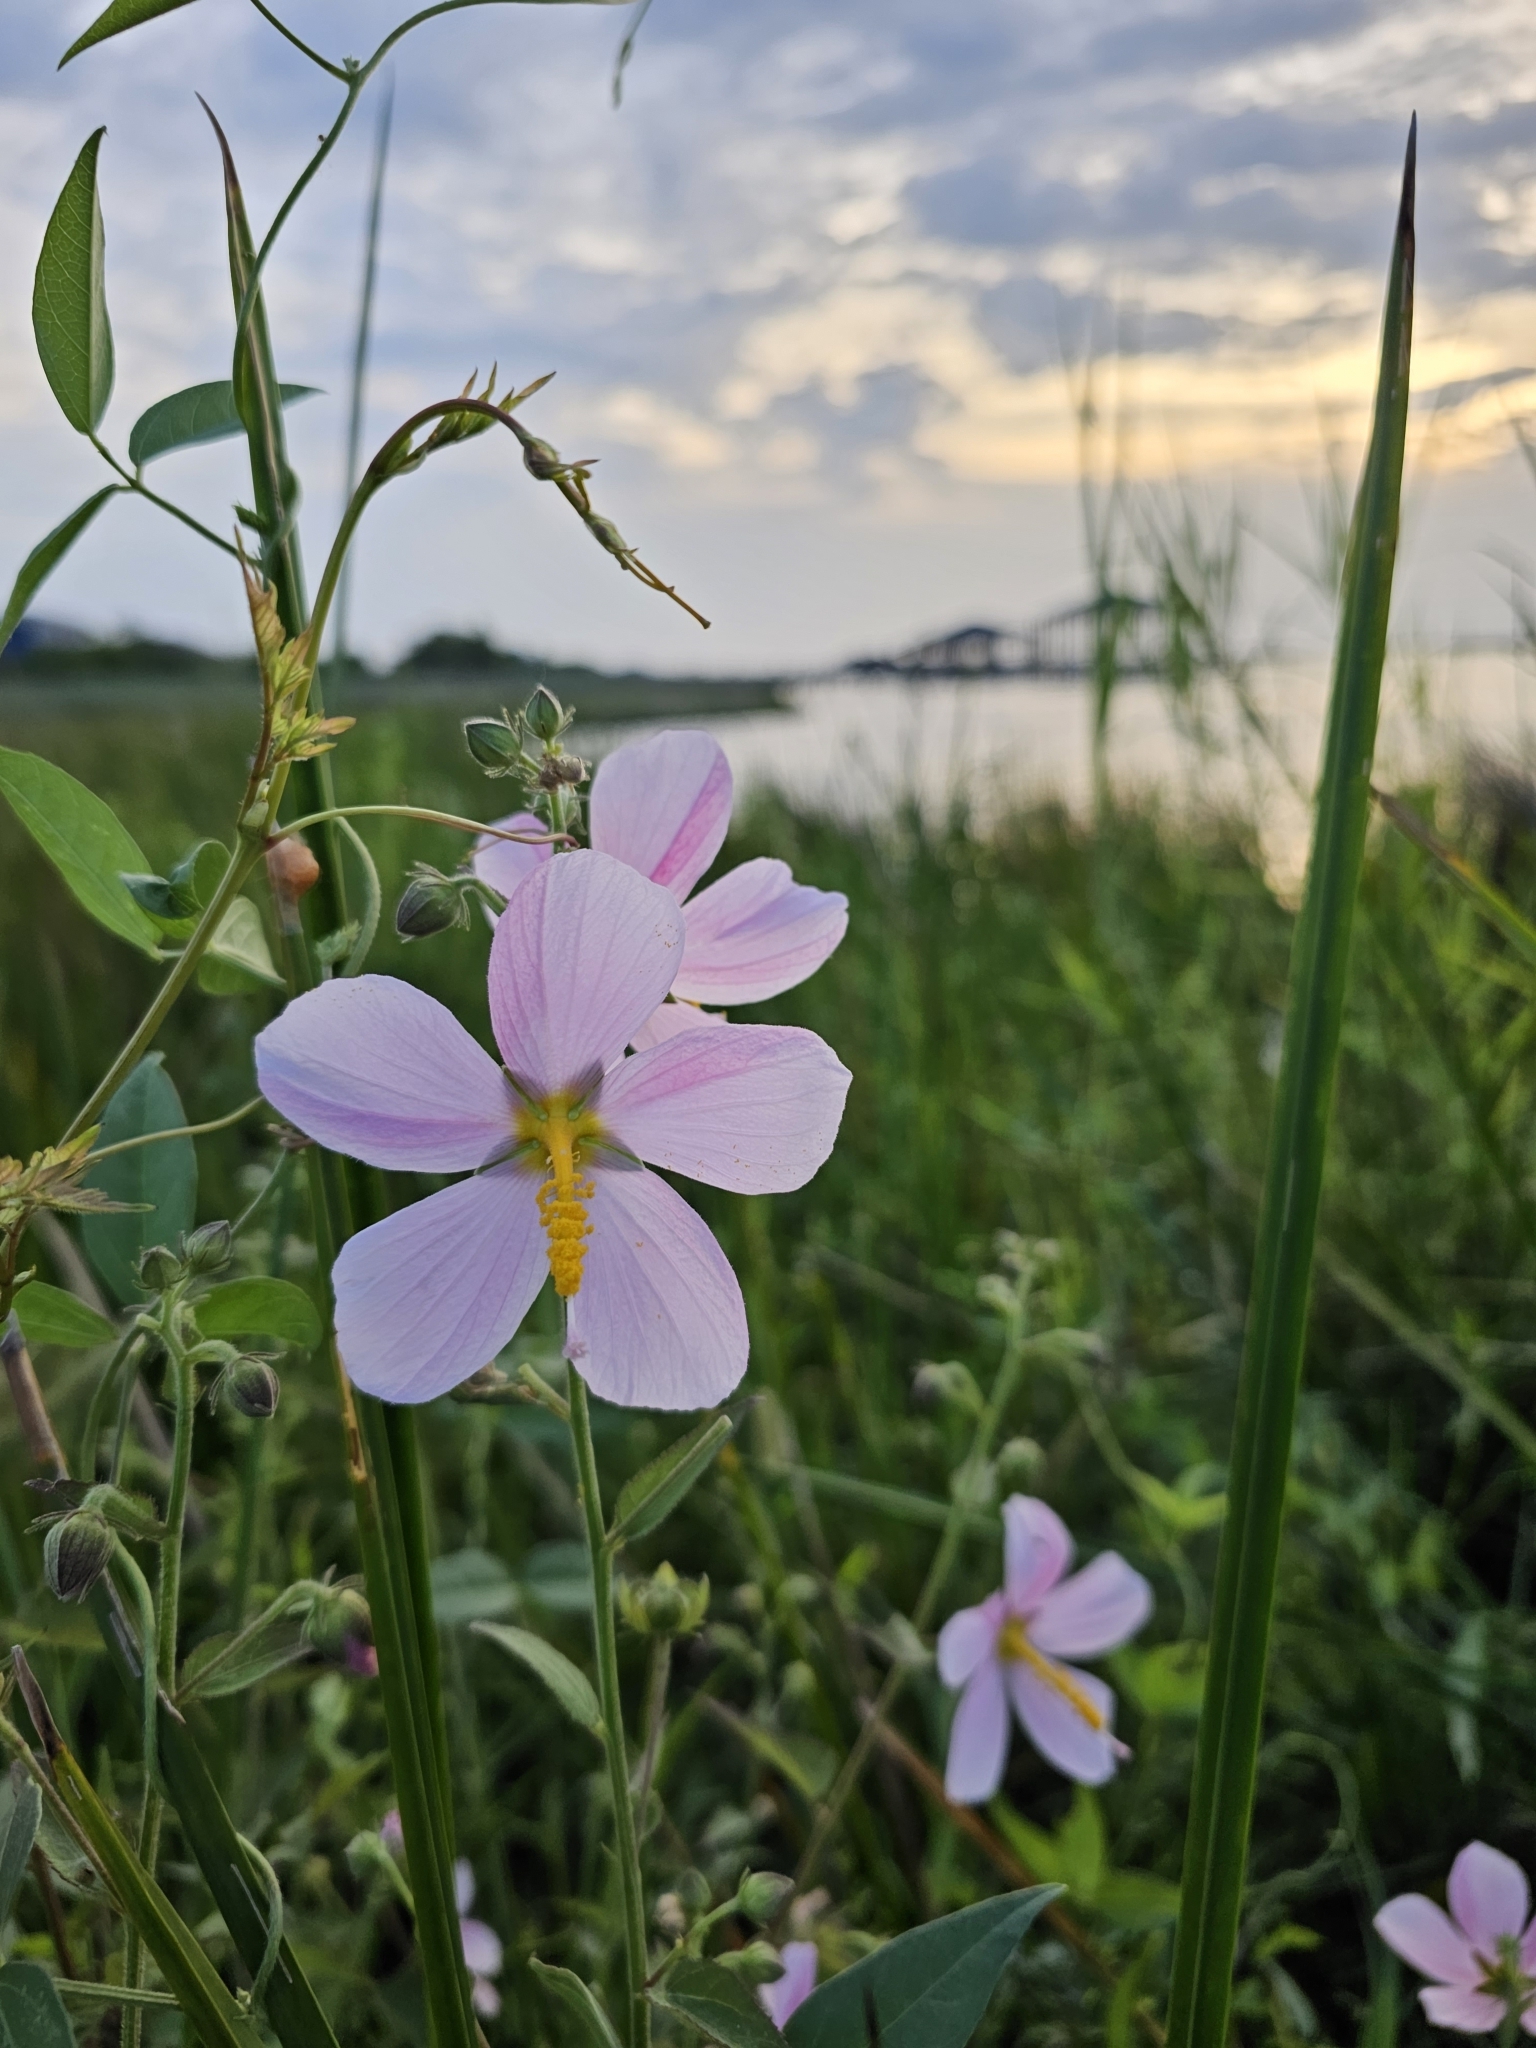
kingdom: Plantae
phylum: Tracheophyta
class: Magnoliopsida
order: Malvales
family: Malvaceae
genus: Kosteletzkya
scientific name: Kosteletzkya pentacarpos
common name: Virginia saltmarsh mallow
